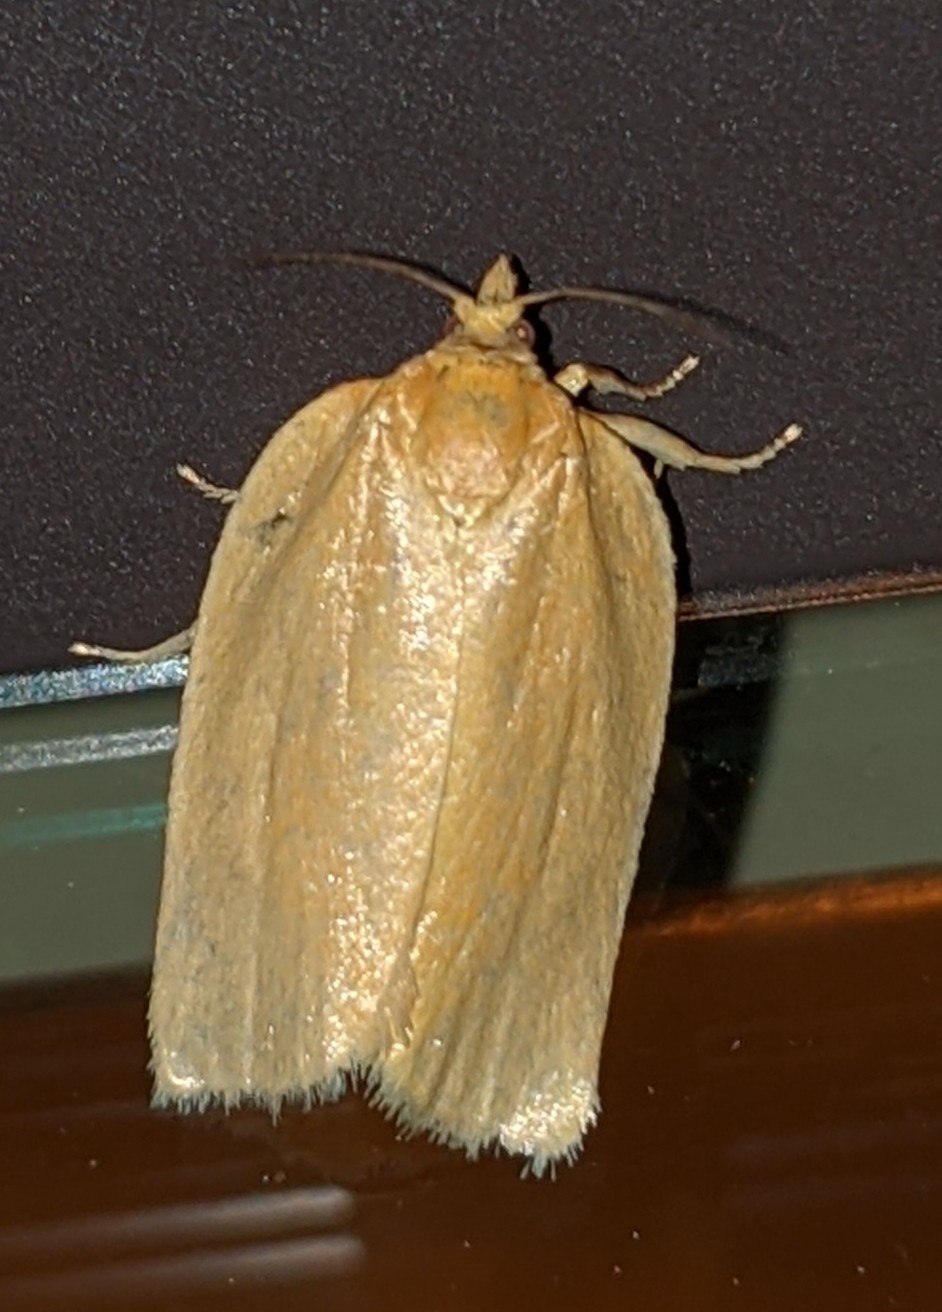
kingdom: Animalia
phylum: Arthropoda
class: Insecta
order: Lepidoptera
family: Tortricidae
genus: Clepsis
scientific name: Clepsis clemensiana
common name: Clemens' clepsis moth
